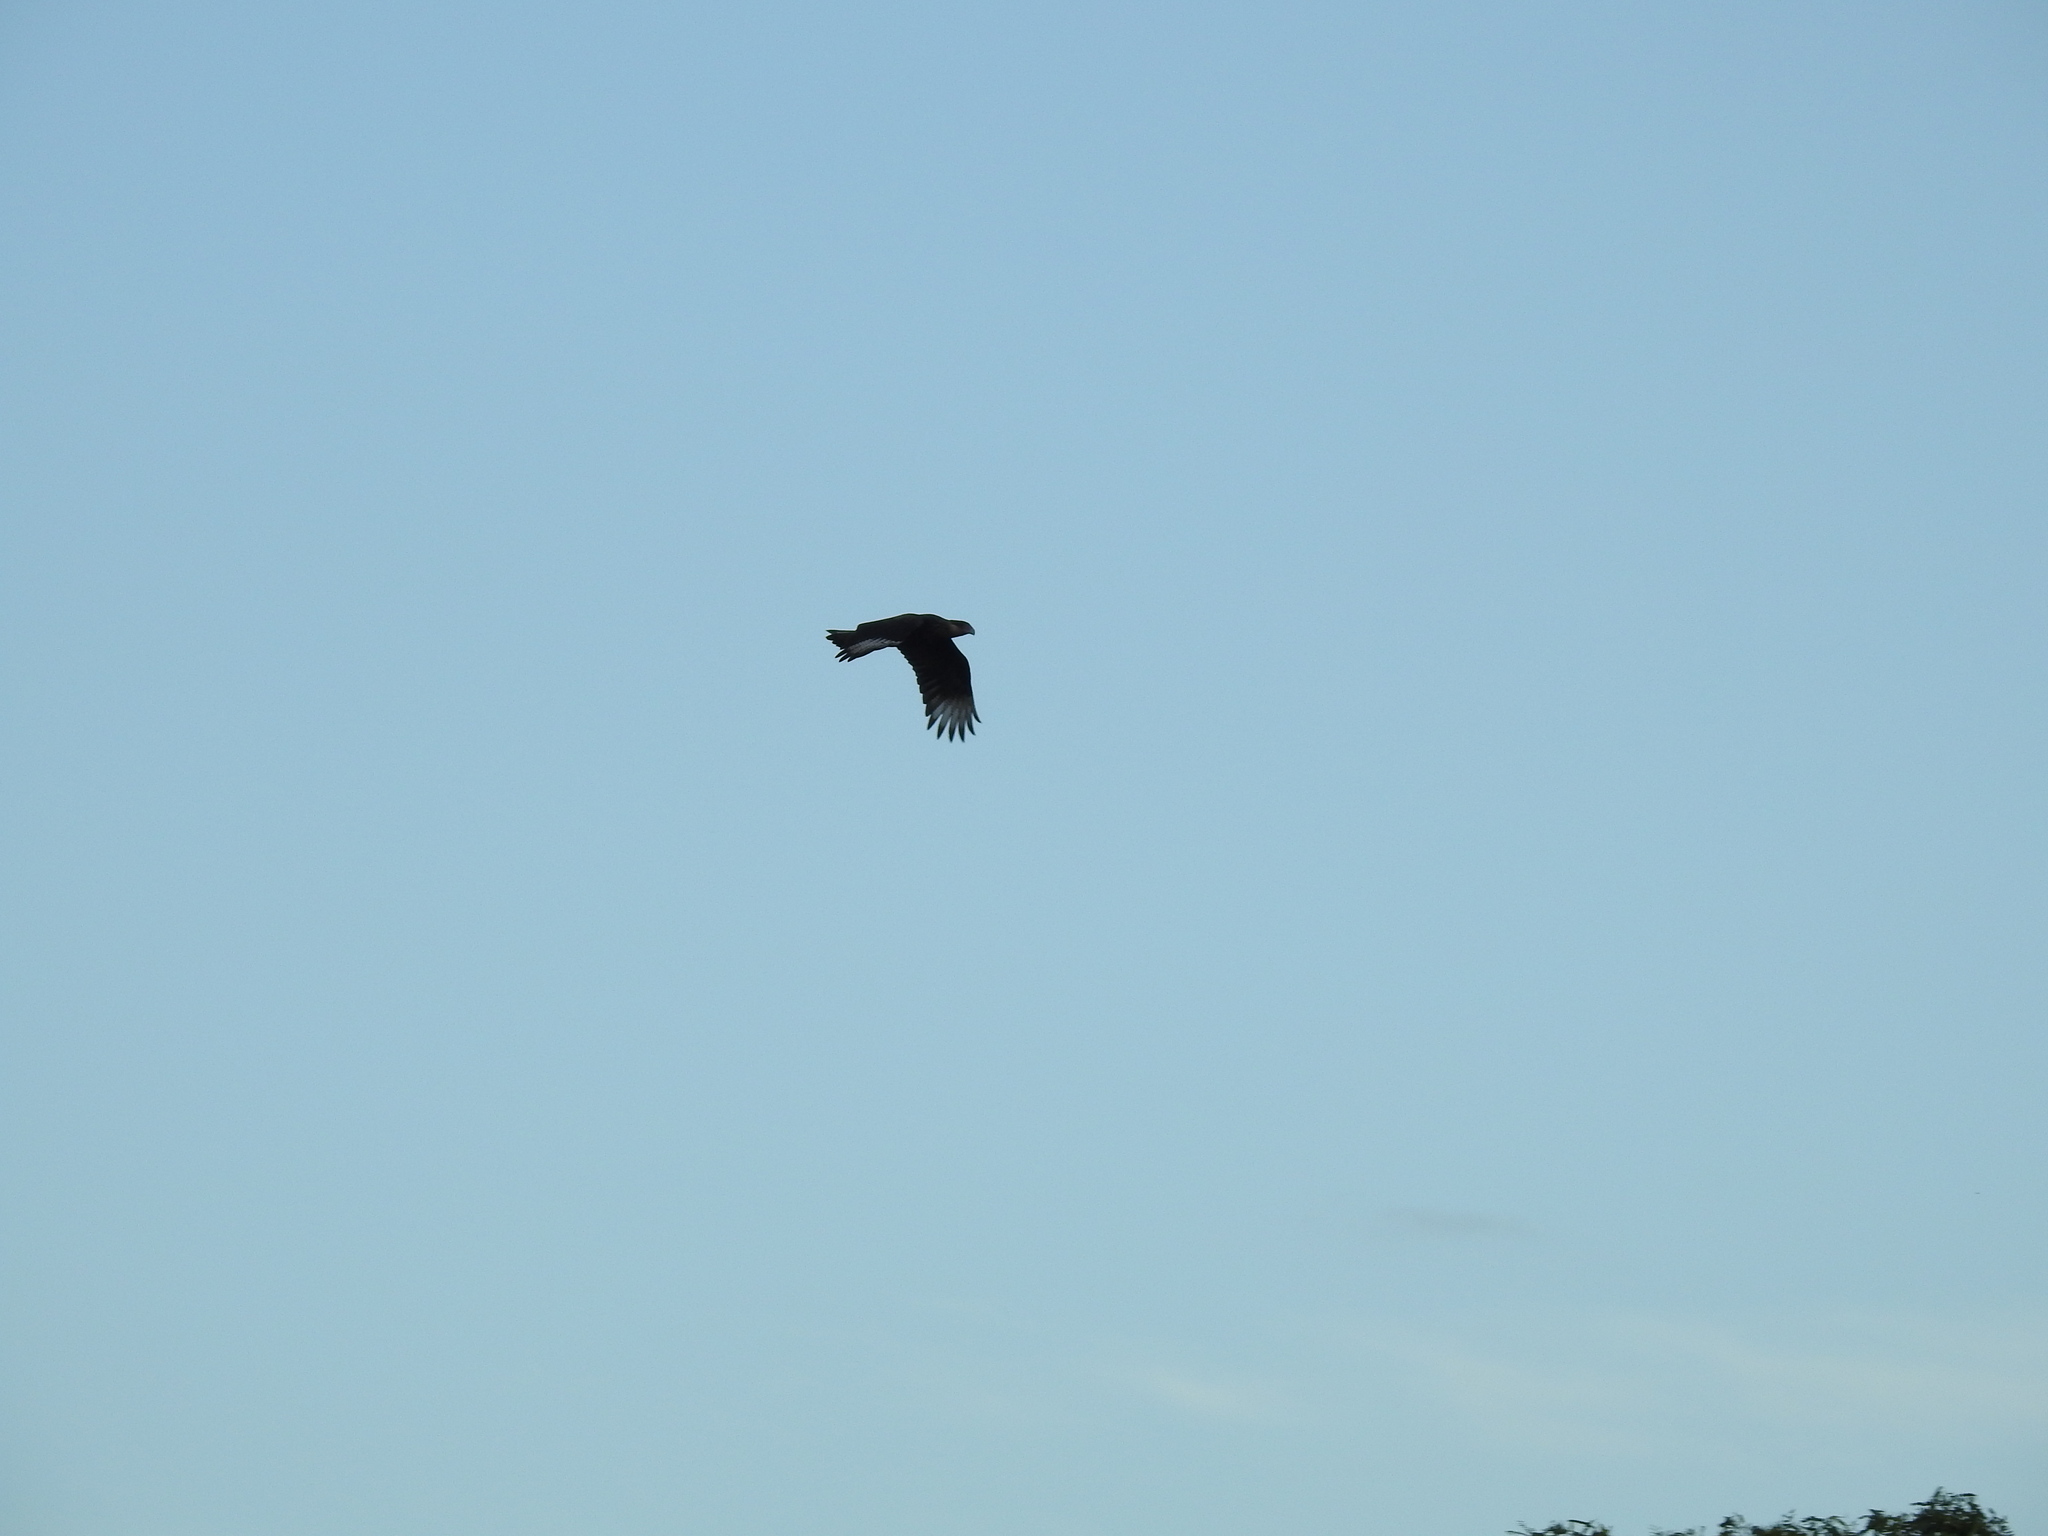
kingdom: Animalia
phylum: Chordata
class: Aves
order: Falconiformes
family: Falconidae
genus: Caracara
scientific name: Caracara plancus
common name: Southern caracara
